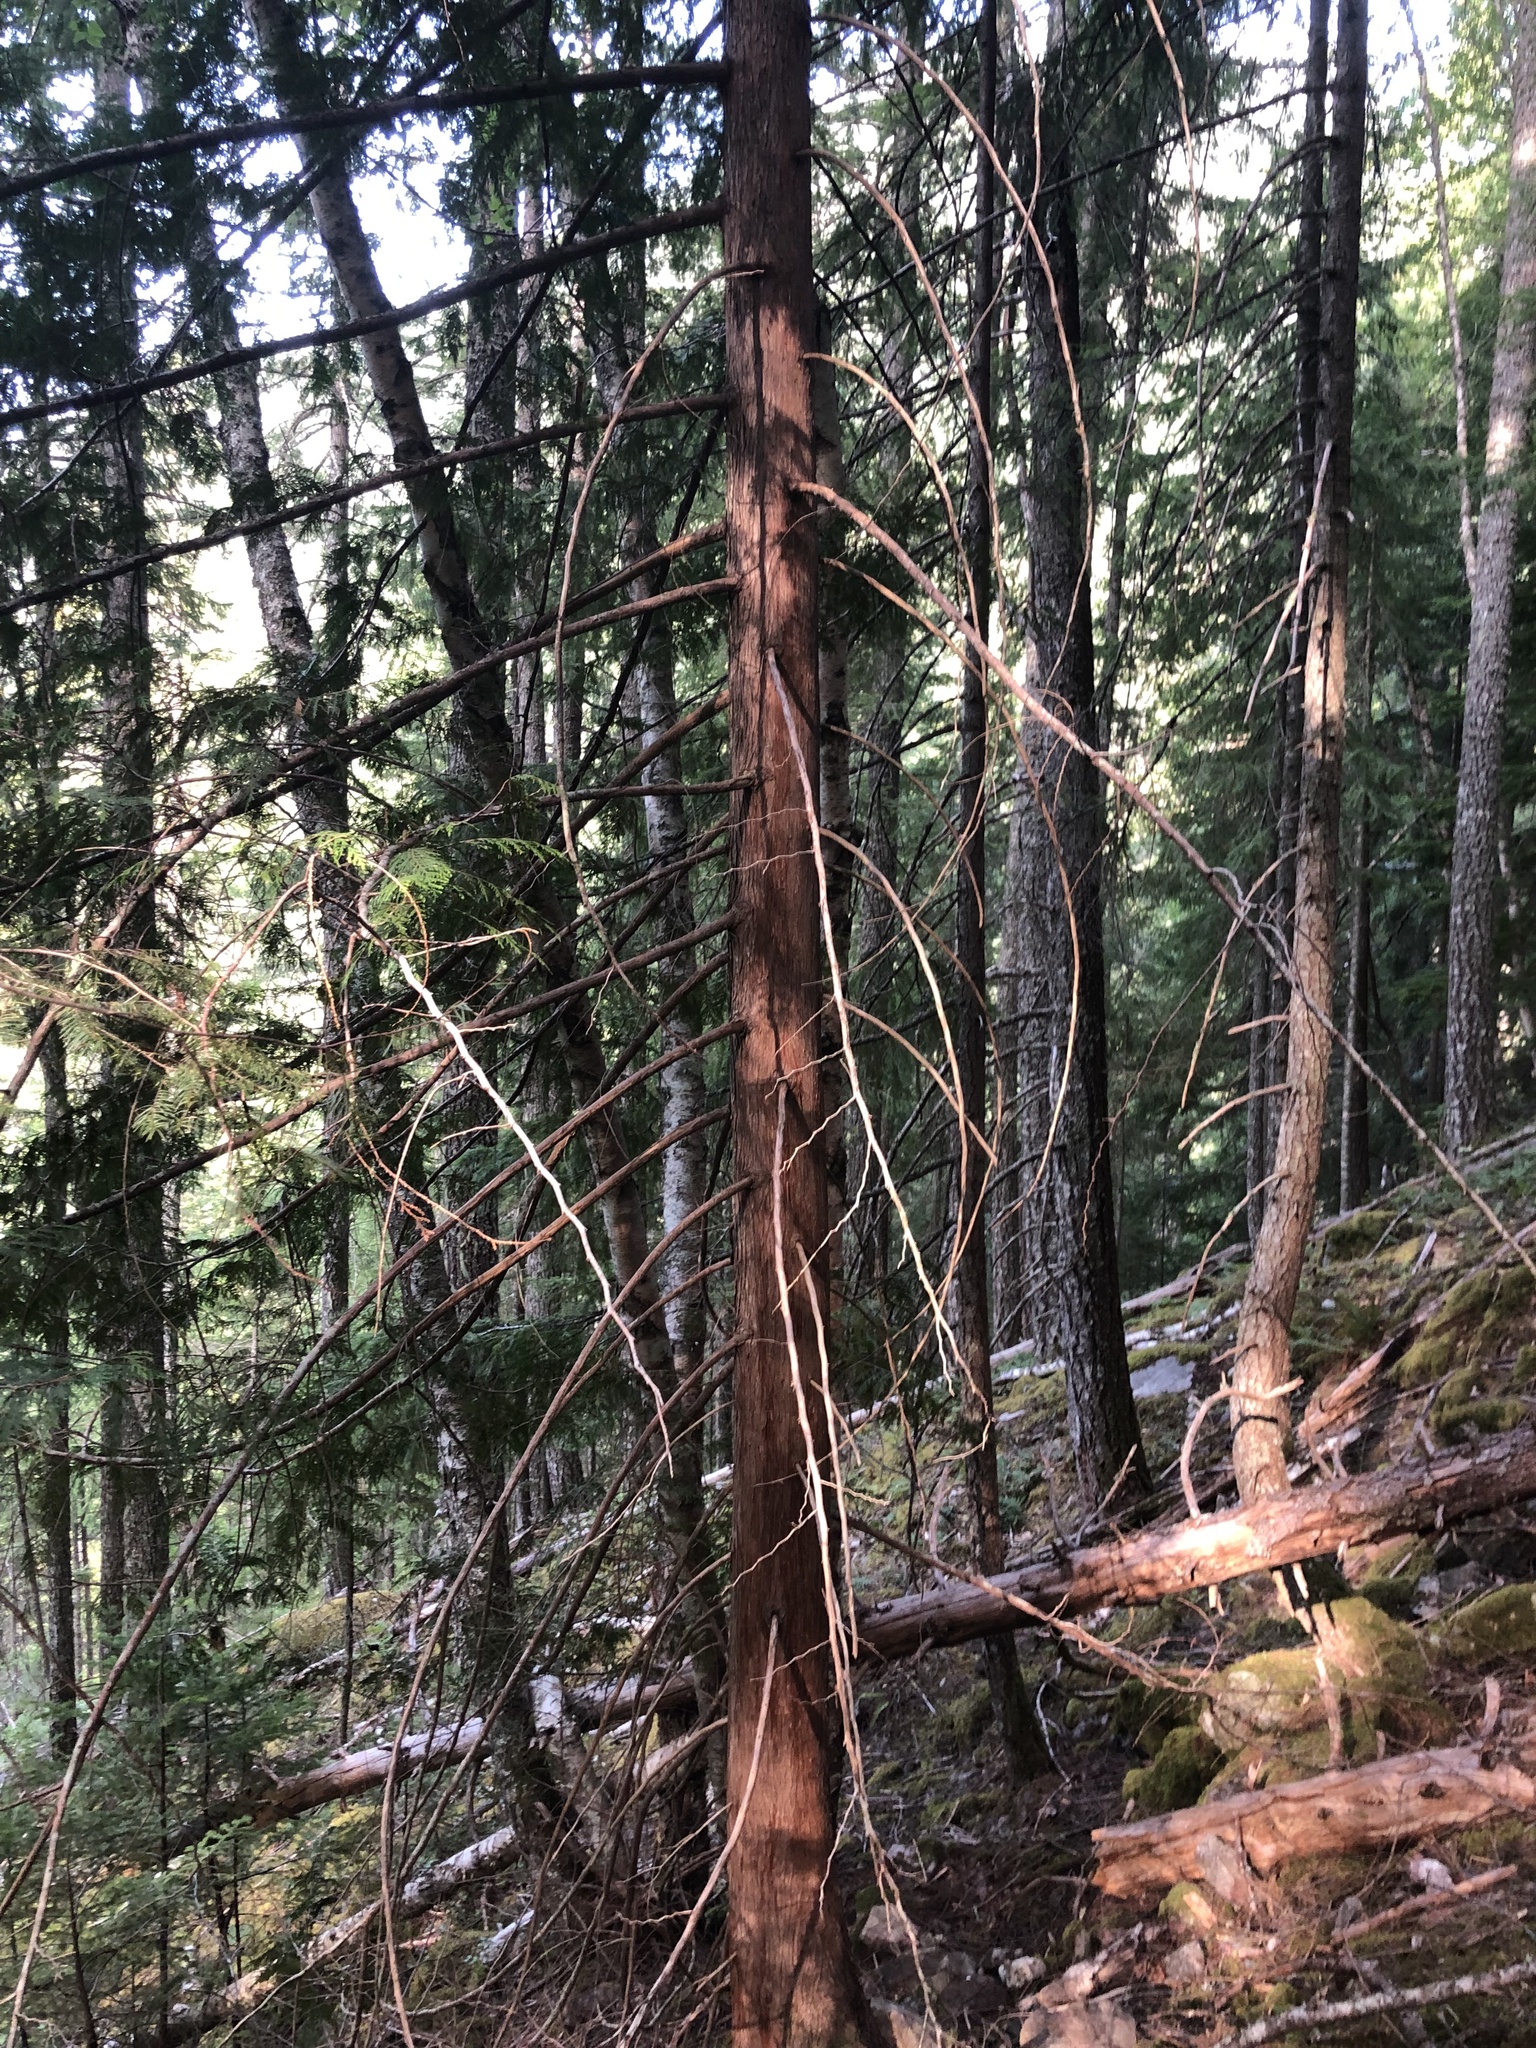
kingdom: Plantae
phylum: Tracheophyta
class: Pinopsida
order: Pinales
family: Cupressaceae
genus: Thuja
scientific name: Thuja plicata
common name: Western red-cedar
